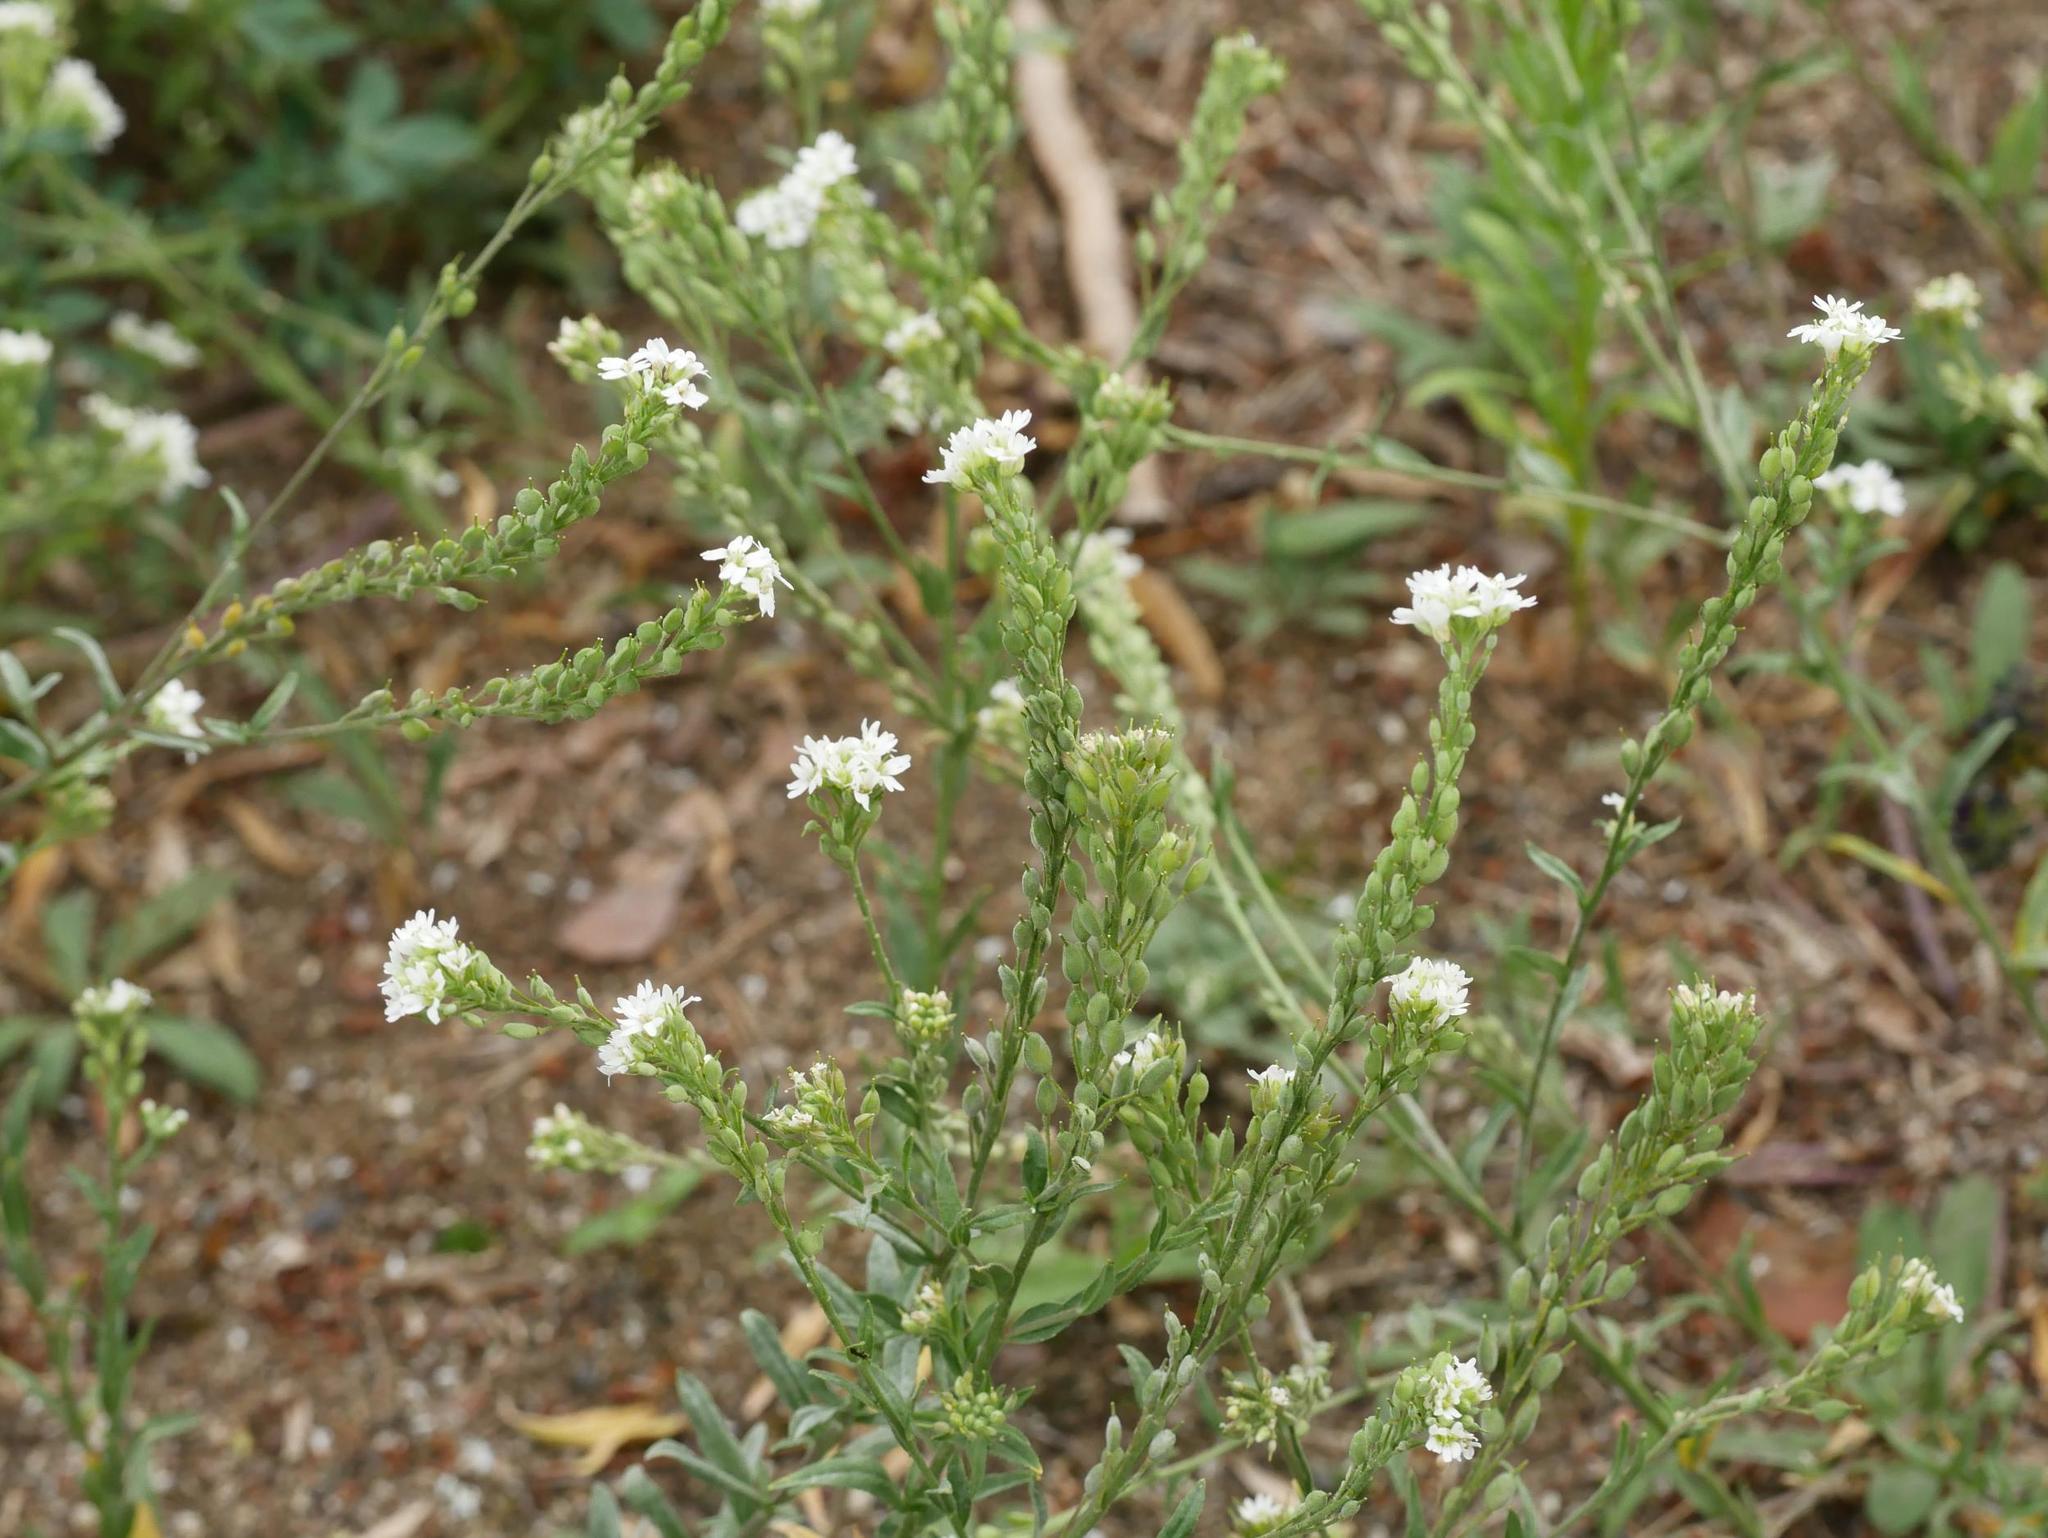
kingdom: Plantae
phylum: Tracheophyta
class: Magnoliopsida
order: Brassicales
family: Brassicaceae
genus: Berteroa
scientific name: Berteroa incana
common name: Hoary alison
